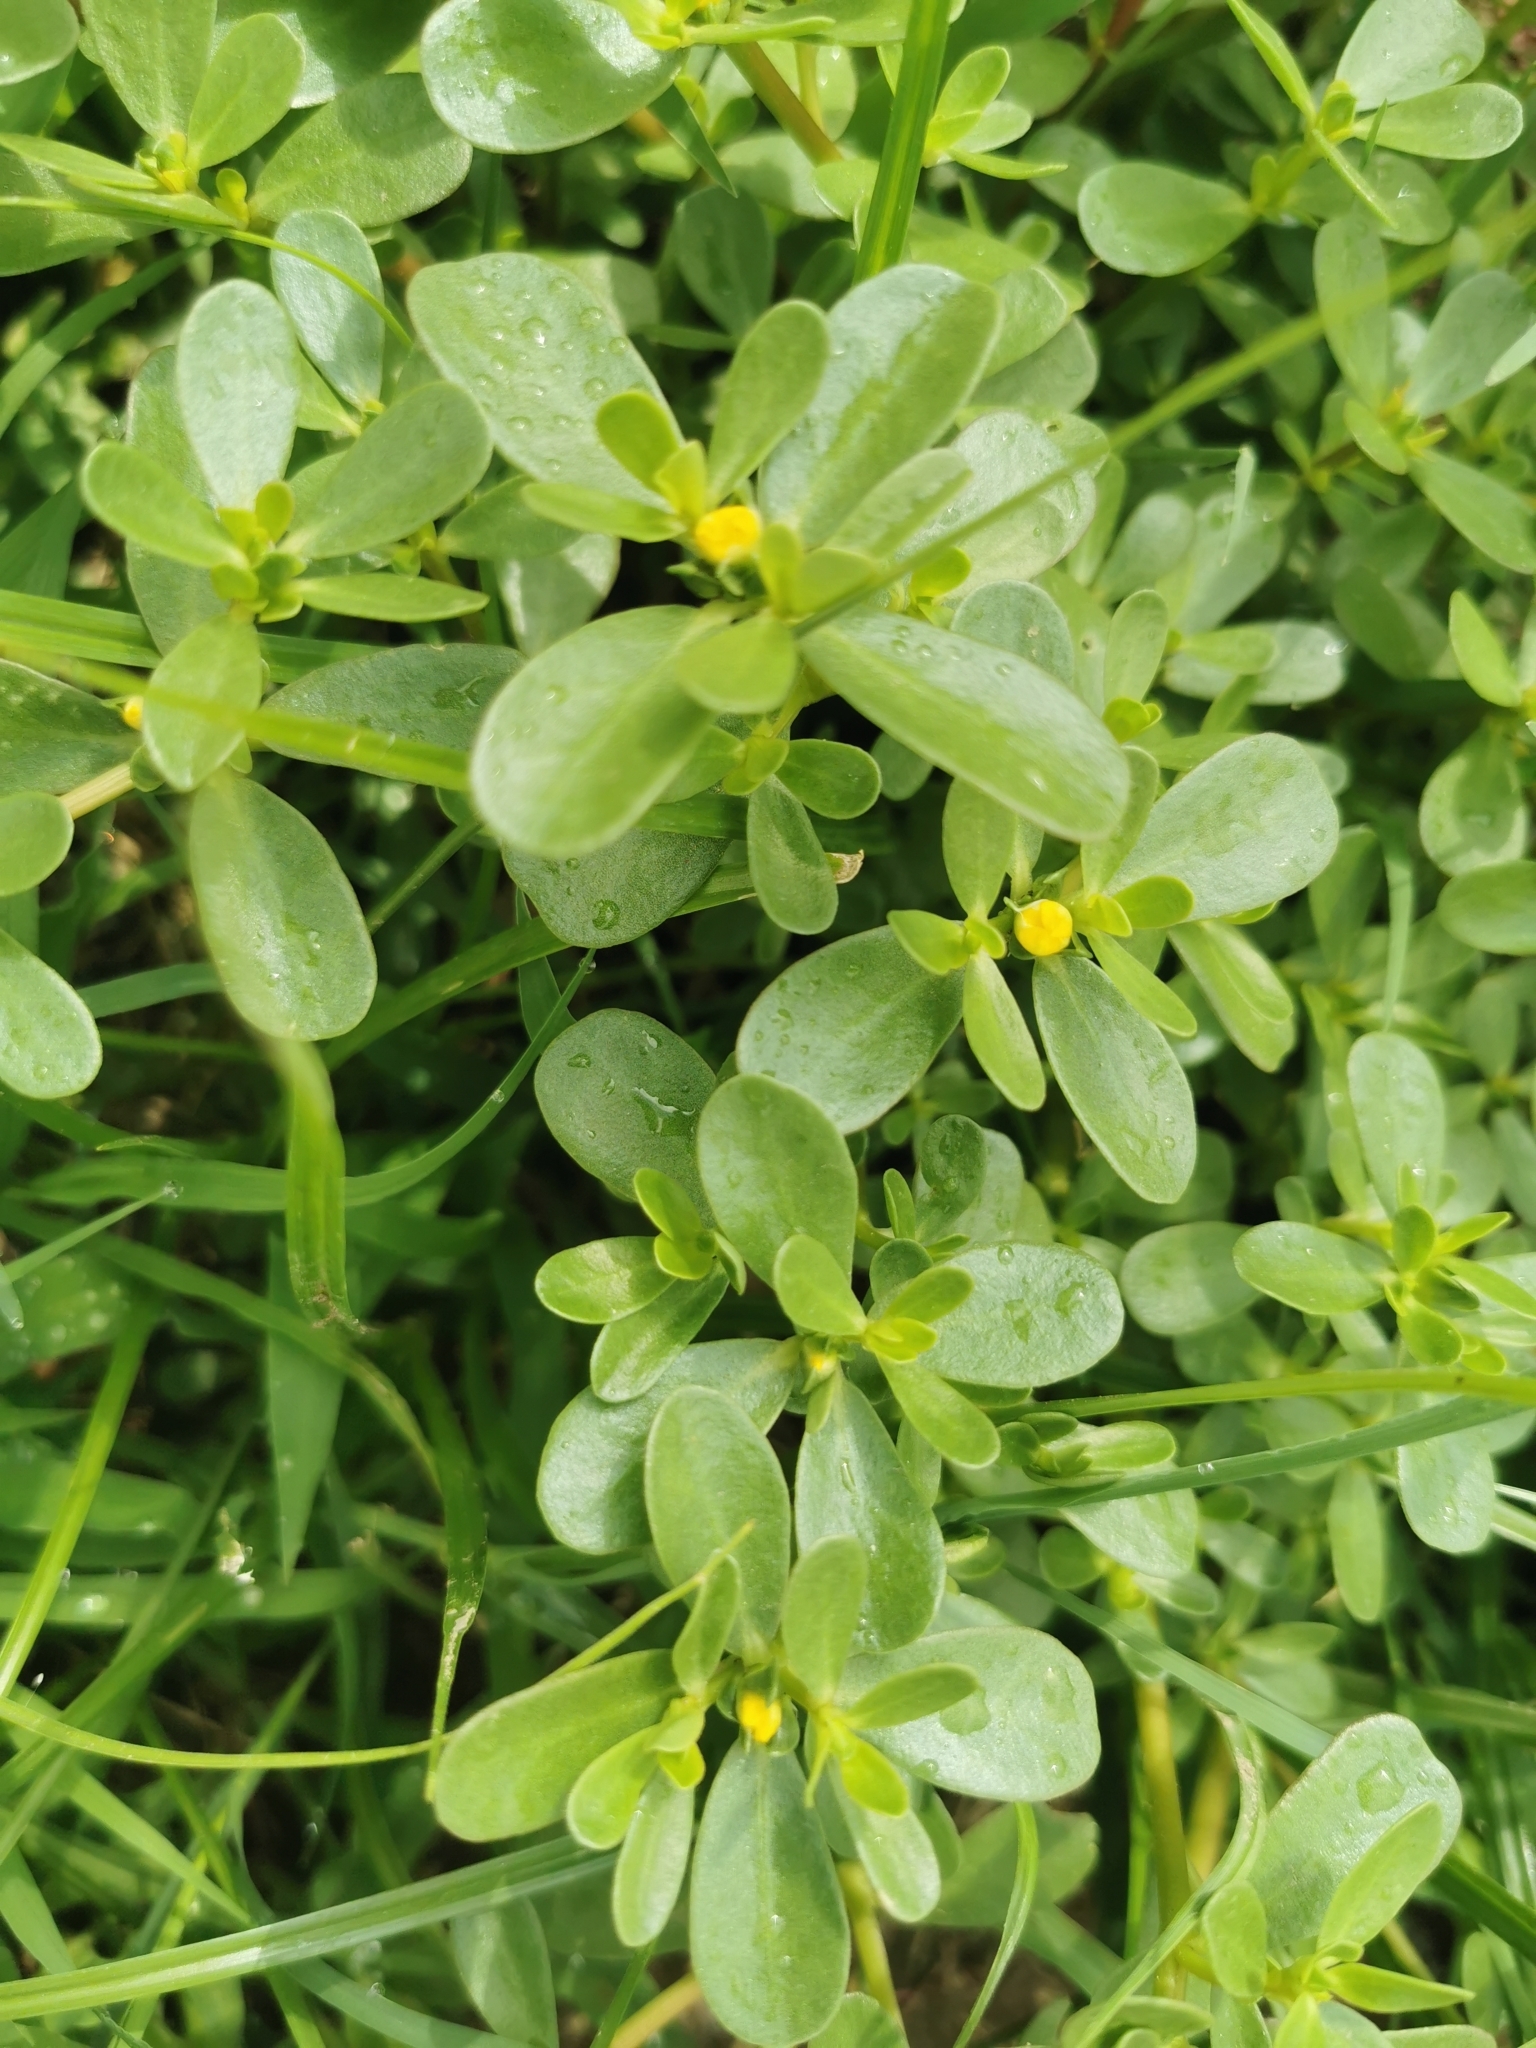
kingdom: Plantae
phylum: Tracheophyta
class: Magnoliopsida
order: Caryophyllales
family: Portulacaceae
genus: Portulaca
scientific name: Portulaca oleracea
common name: Common purslane
